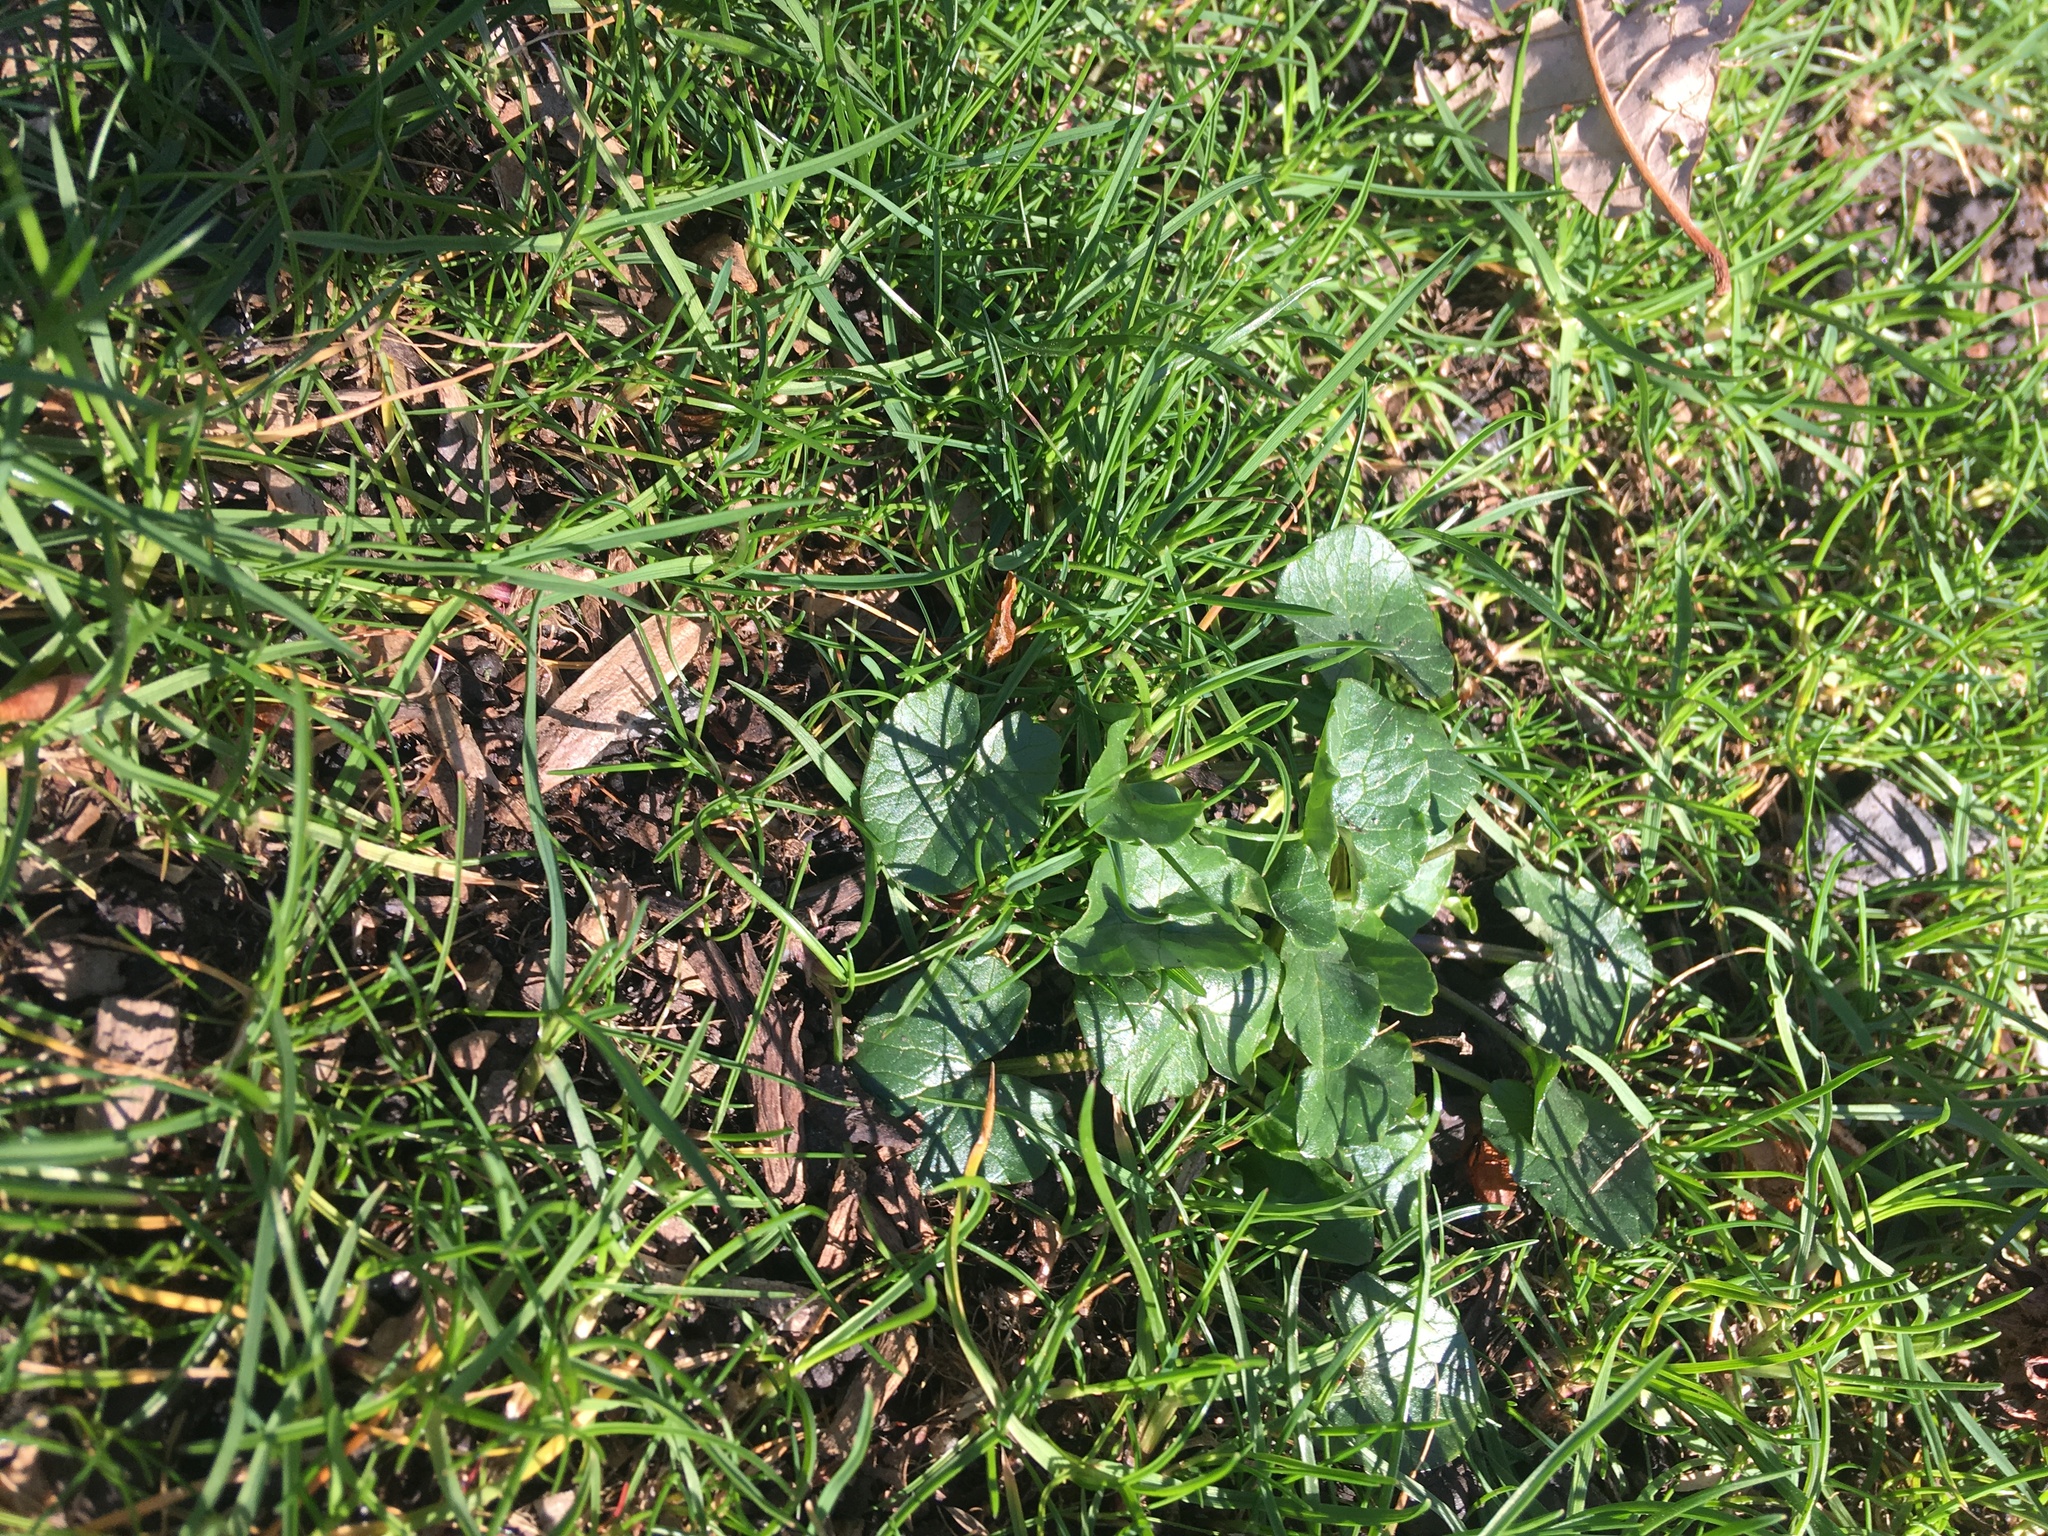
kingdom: Plantae
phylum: Tracheophyta
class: Magnoliopsida
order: Ranunculales
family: Ranunculaceae
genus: Ficaria
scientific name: Ficaria verna
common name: Lesser celandine
